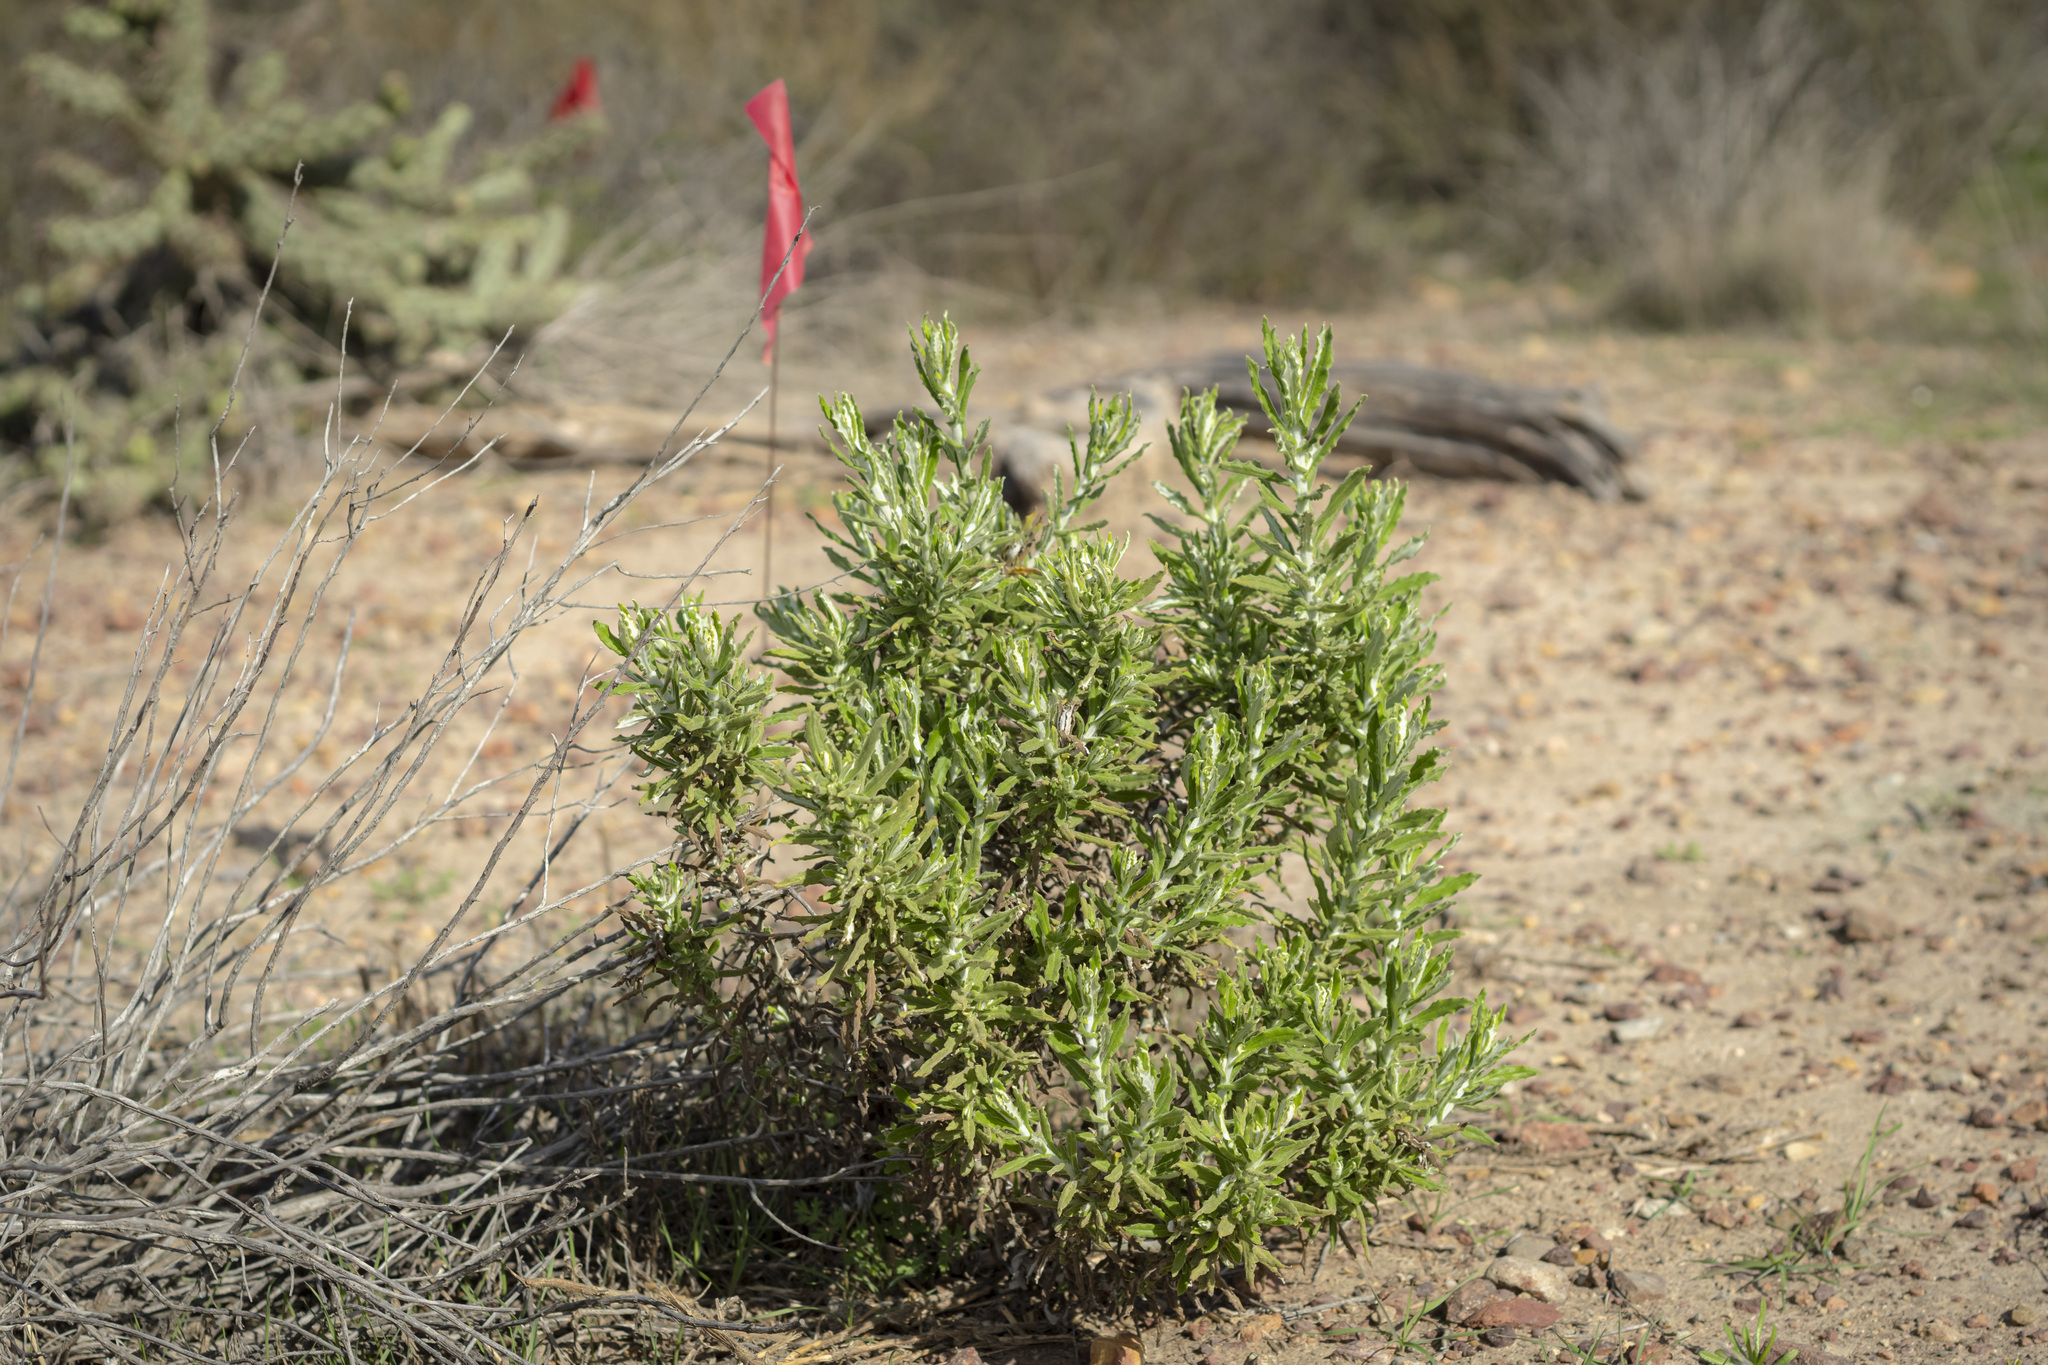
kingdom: Plantae
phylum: Tracheophyta
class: Magnoliopsida
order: Asterales
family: Asteraceae
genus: Pseudognaphalium
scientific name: Pseudognaphalium biolettii
